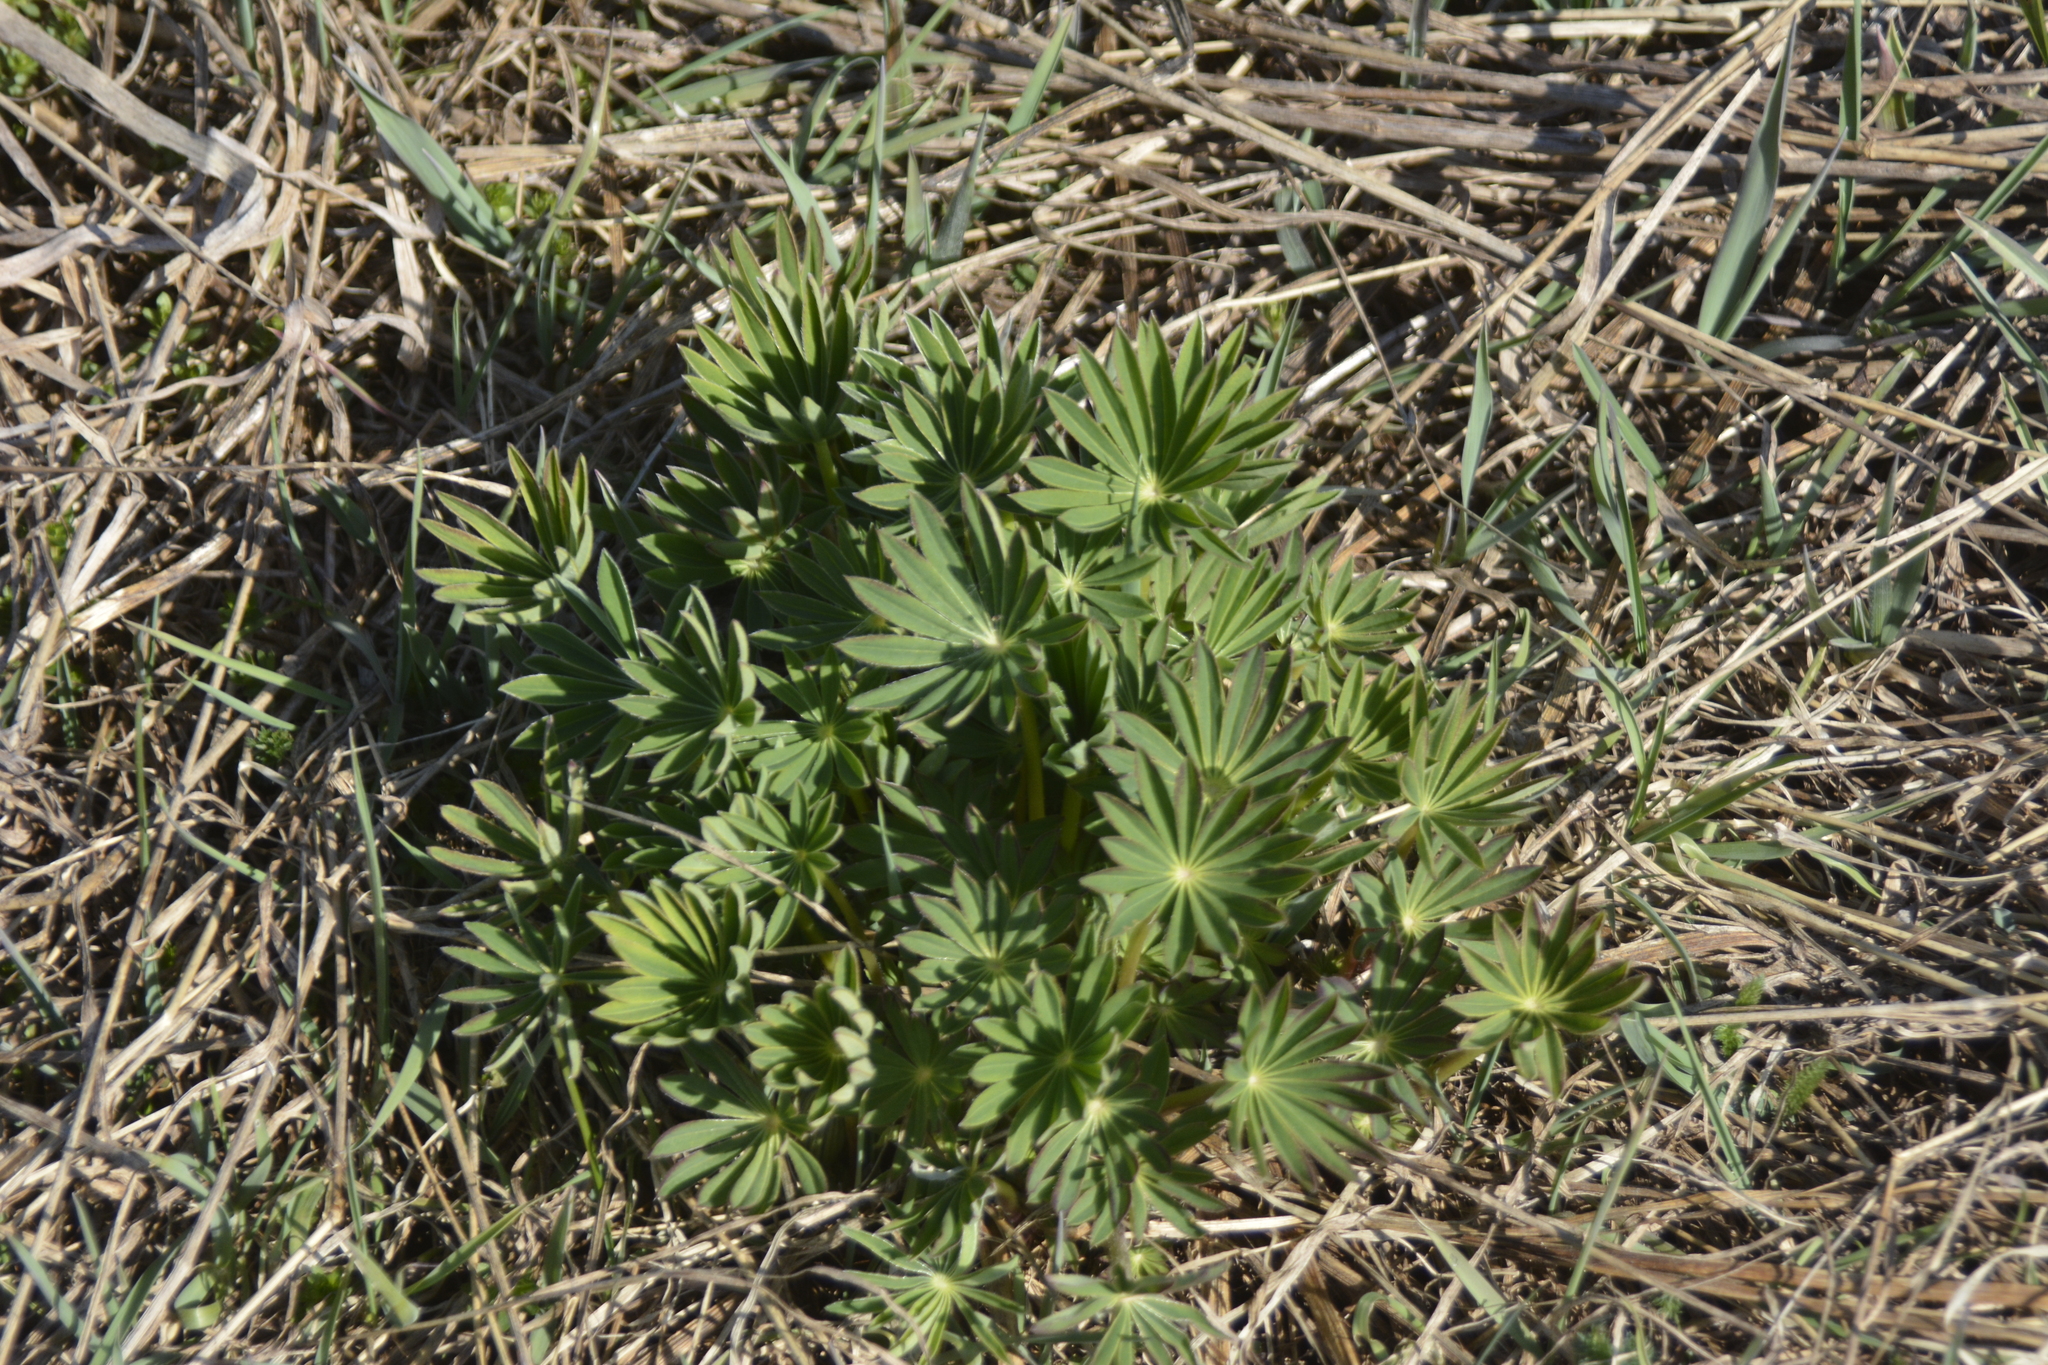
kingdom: Plantae
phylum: Tracheophyta
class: Magnoliopsida
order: Fabales
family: Fabaceae
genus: Lupinus
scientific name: Lupinus polyphyllus
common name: Garden lupin
